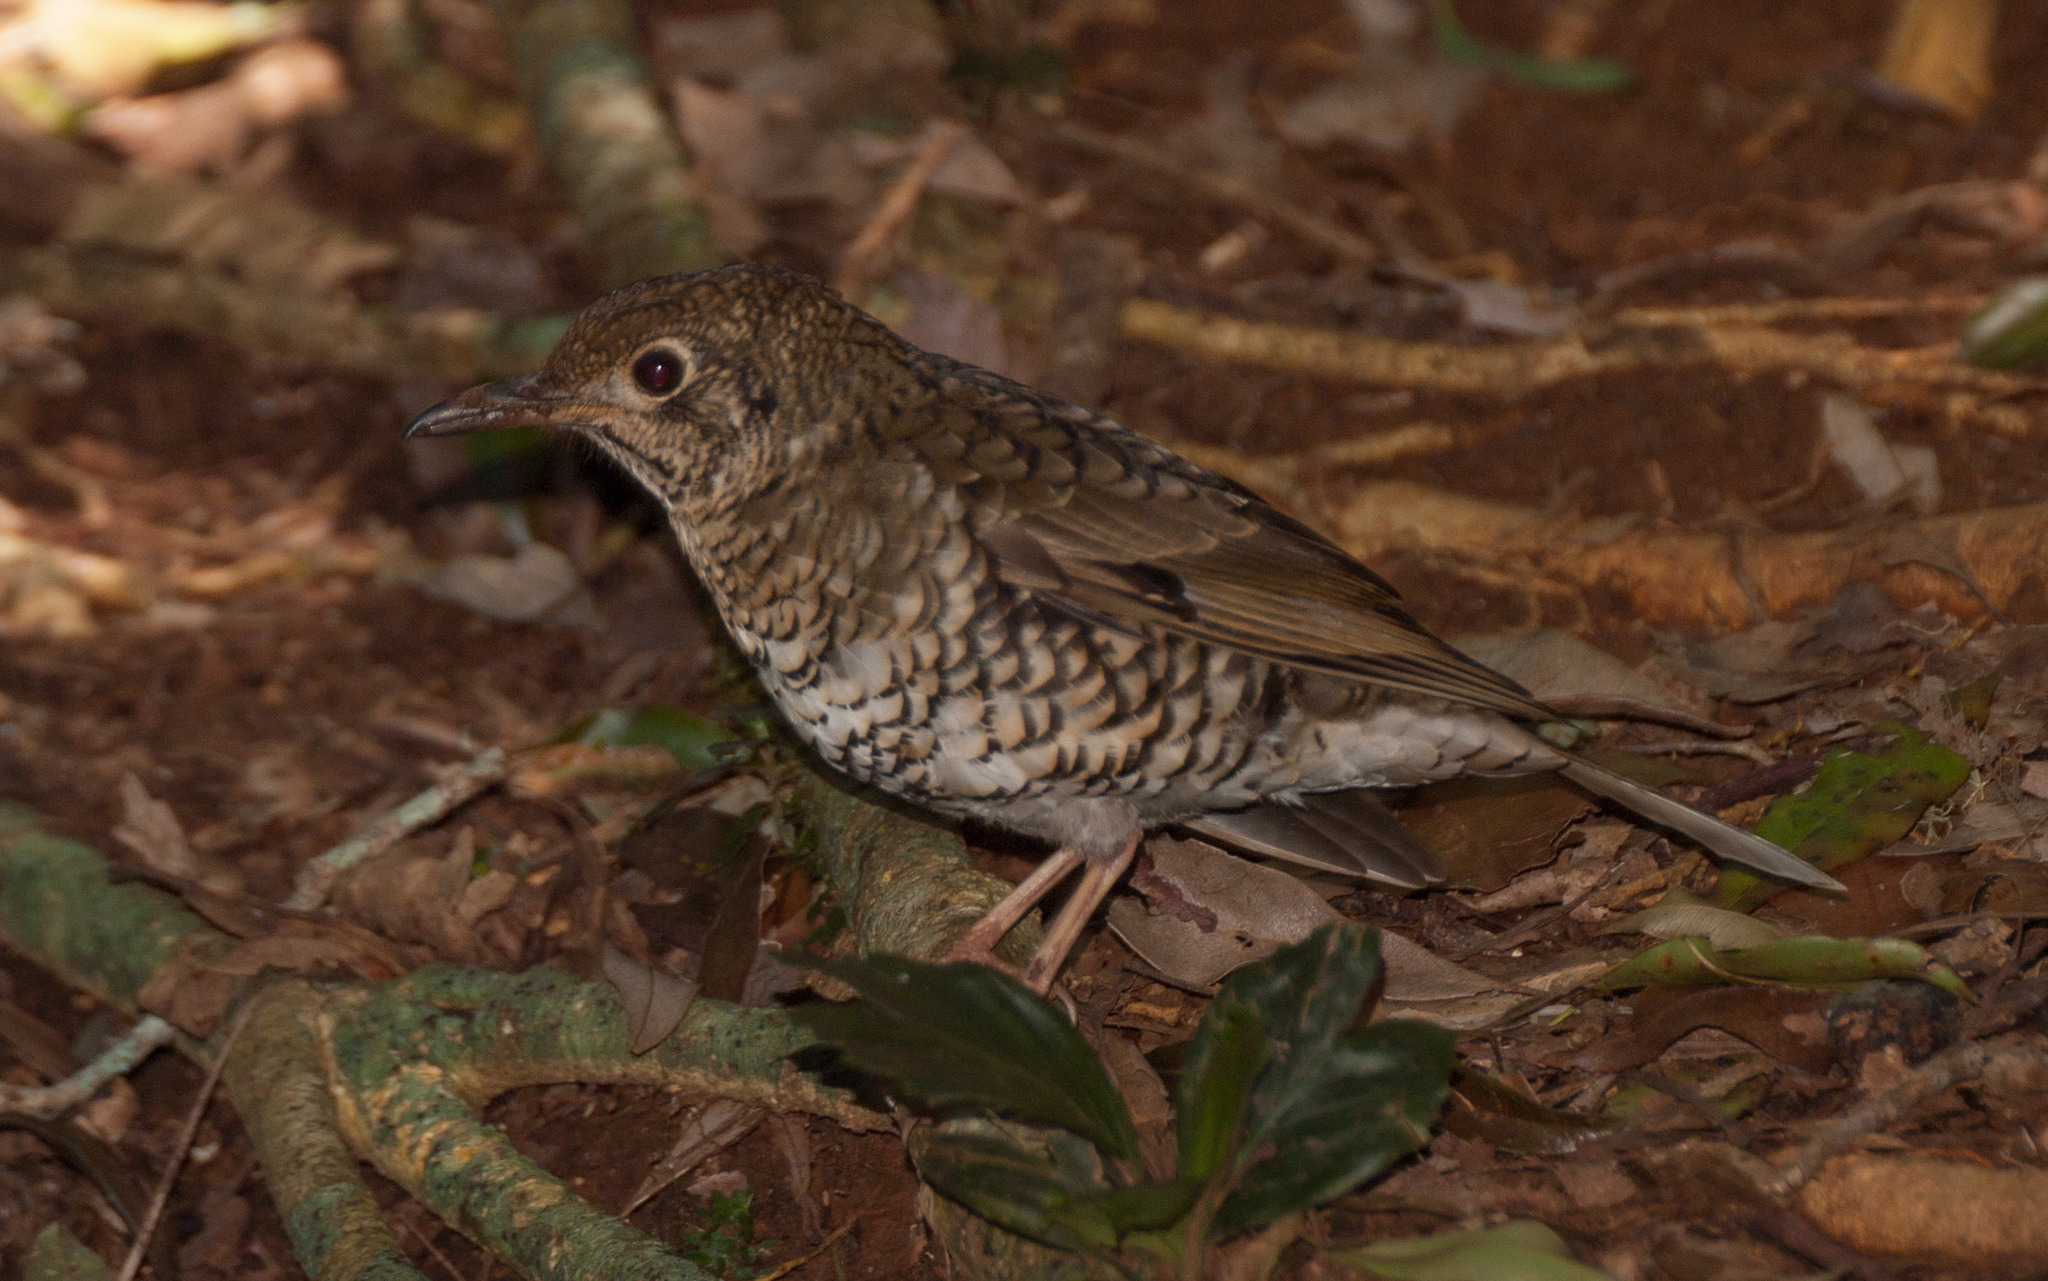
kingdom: Animalia
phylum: Chordata
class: Aves
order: Passeriformes
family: Turdidae
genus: Zoothera
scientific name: Zoothera lunulata
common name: Bassian thrush
